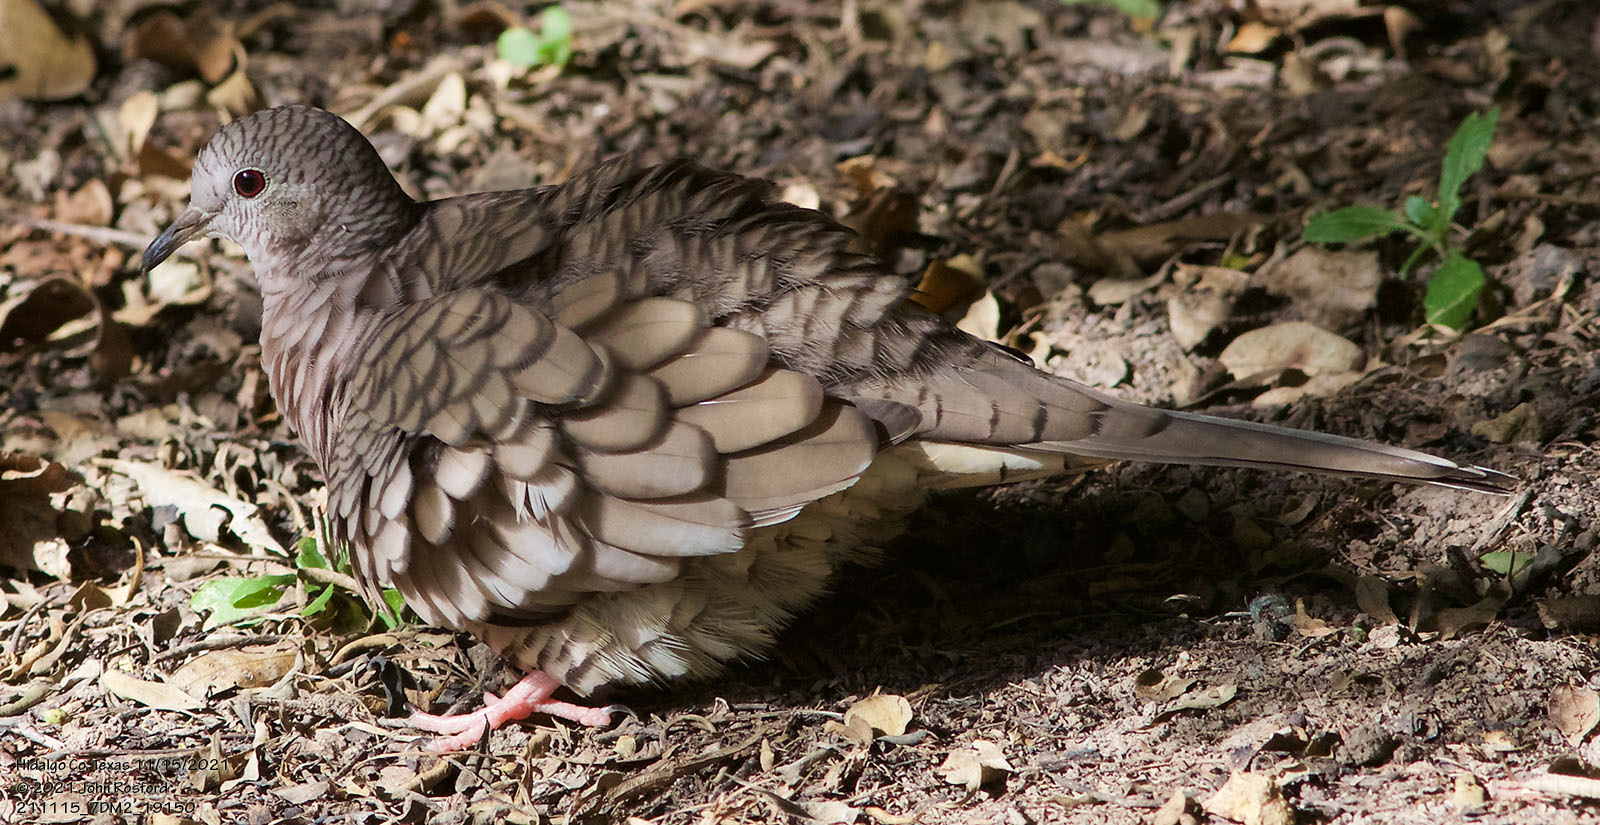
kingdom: Animalia
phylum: Chordata
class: Aves
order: Columbiformes
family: Columbidae
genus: Columbina
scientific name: Columbina inca
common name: Inca dove
